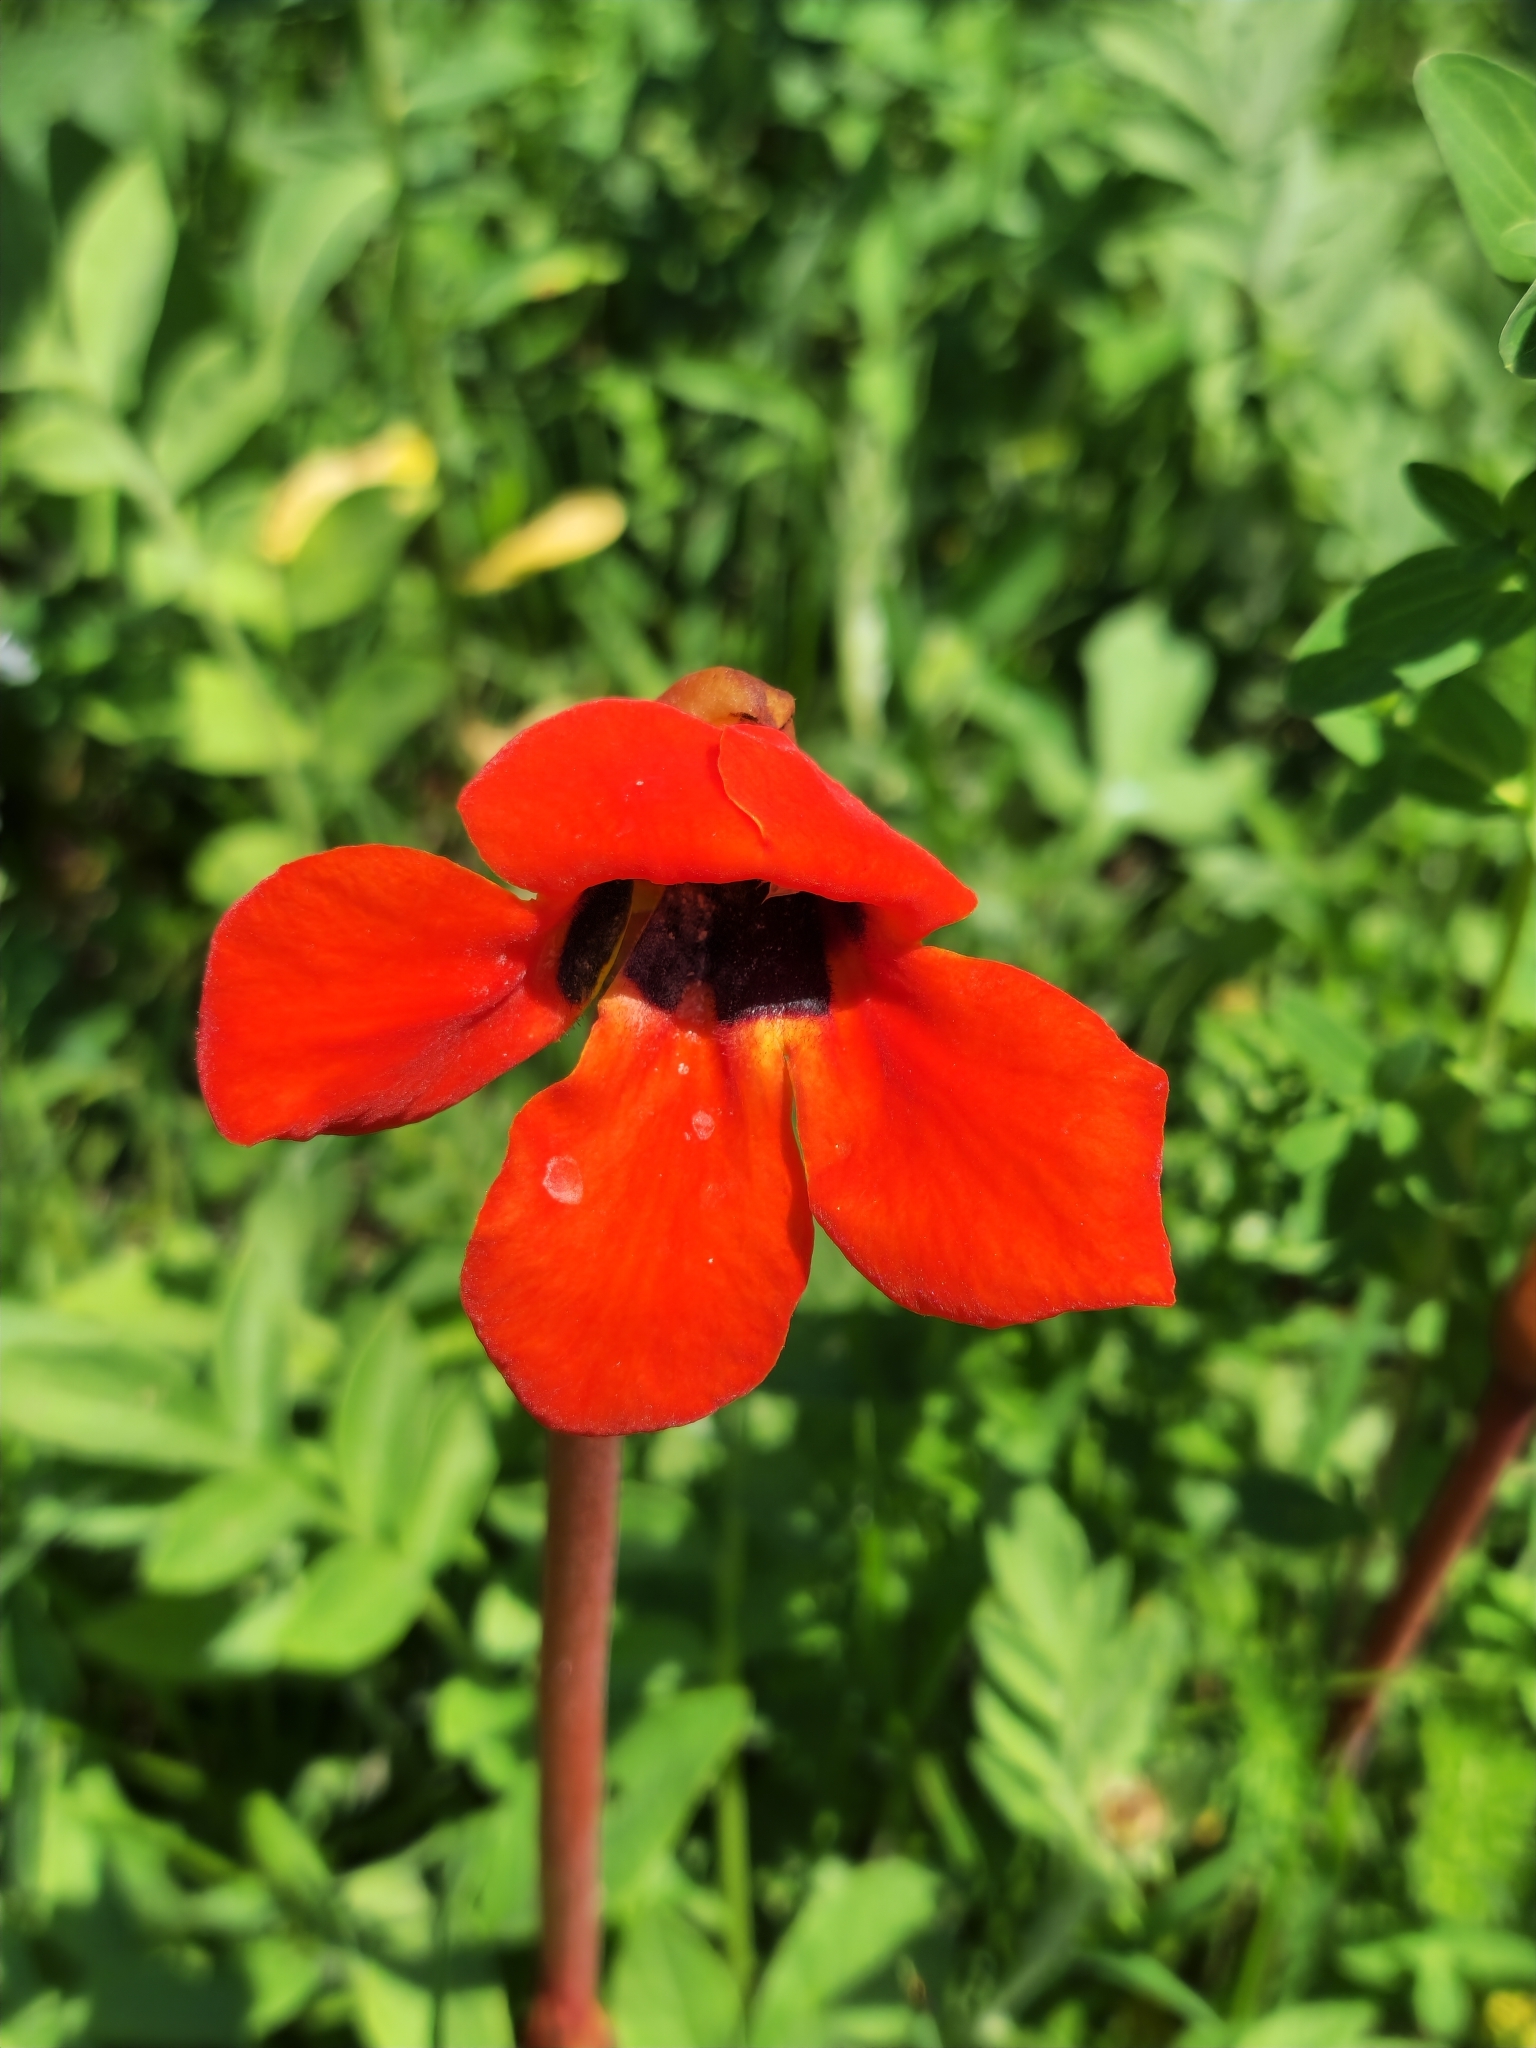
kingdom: Plantae
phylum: Tracheophyta
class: Magnoliopsida
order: Lamiales
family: Orobanchaceae
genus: Diphelypaea
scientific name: Diphelypaea coccinea
